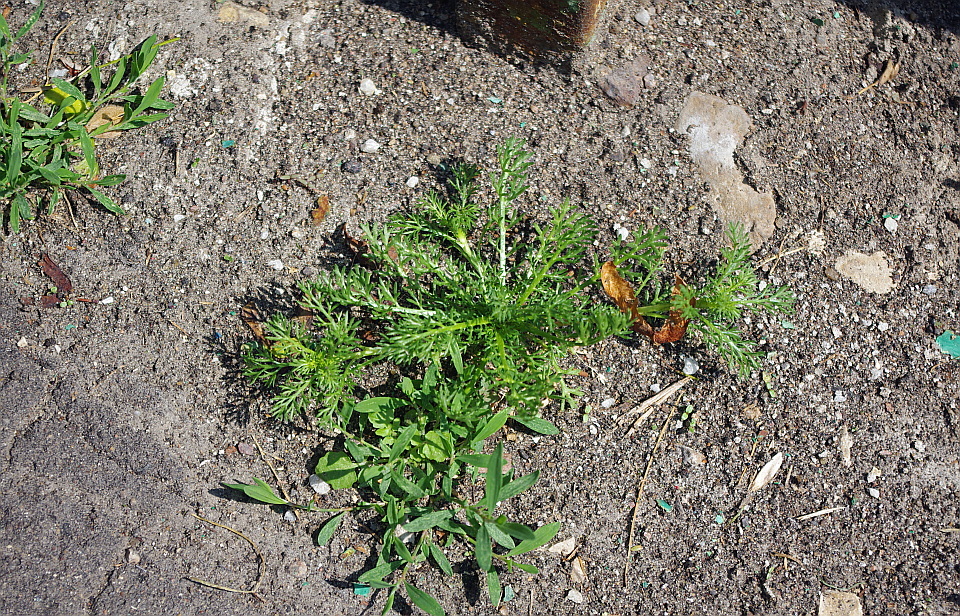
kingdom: Plantae
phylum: Tracheophyta
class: Magnoliopsida
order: Asterales
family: Asteraceae
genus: Matricaria
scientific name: Matricaria discoidea
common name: Disc mayweed
